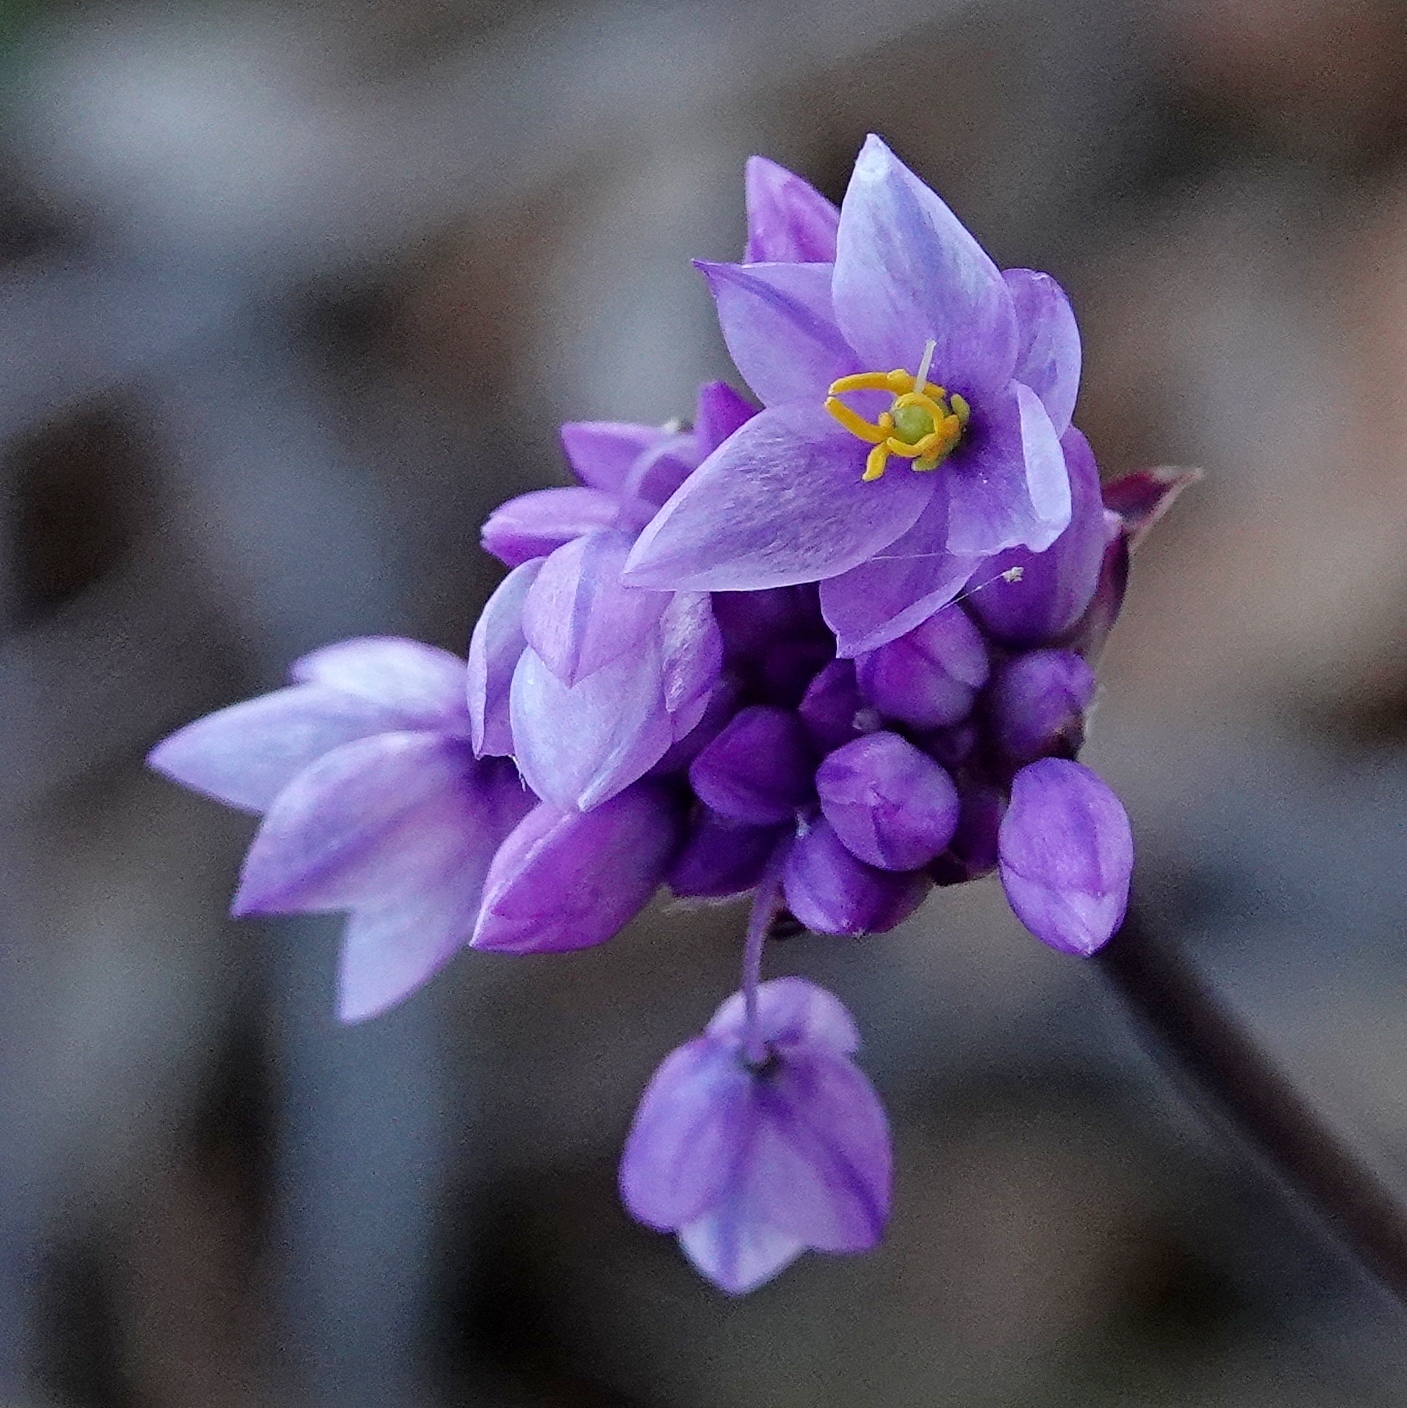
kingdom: Plantae
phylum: Tracheophyta
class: Liliopsida
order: Asparagales
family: Asparagaceae
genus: Sowerbaea
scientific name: Sowerbaea juncea
